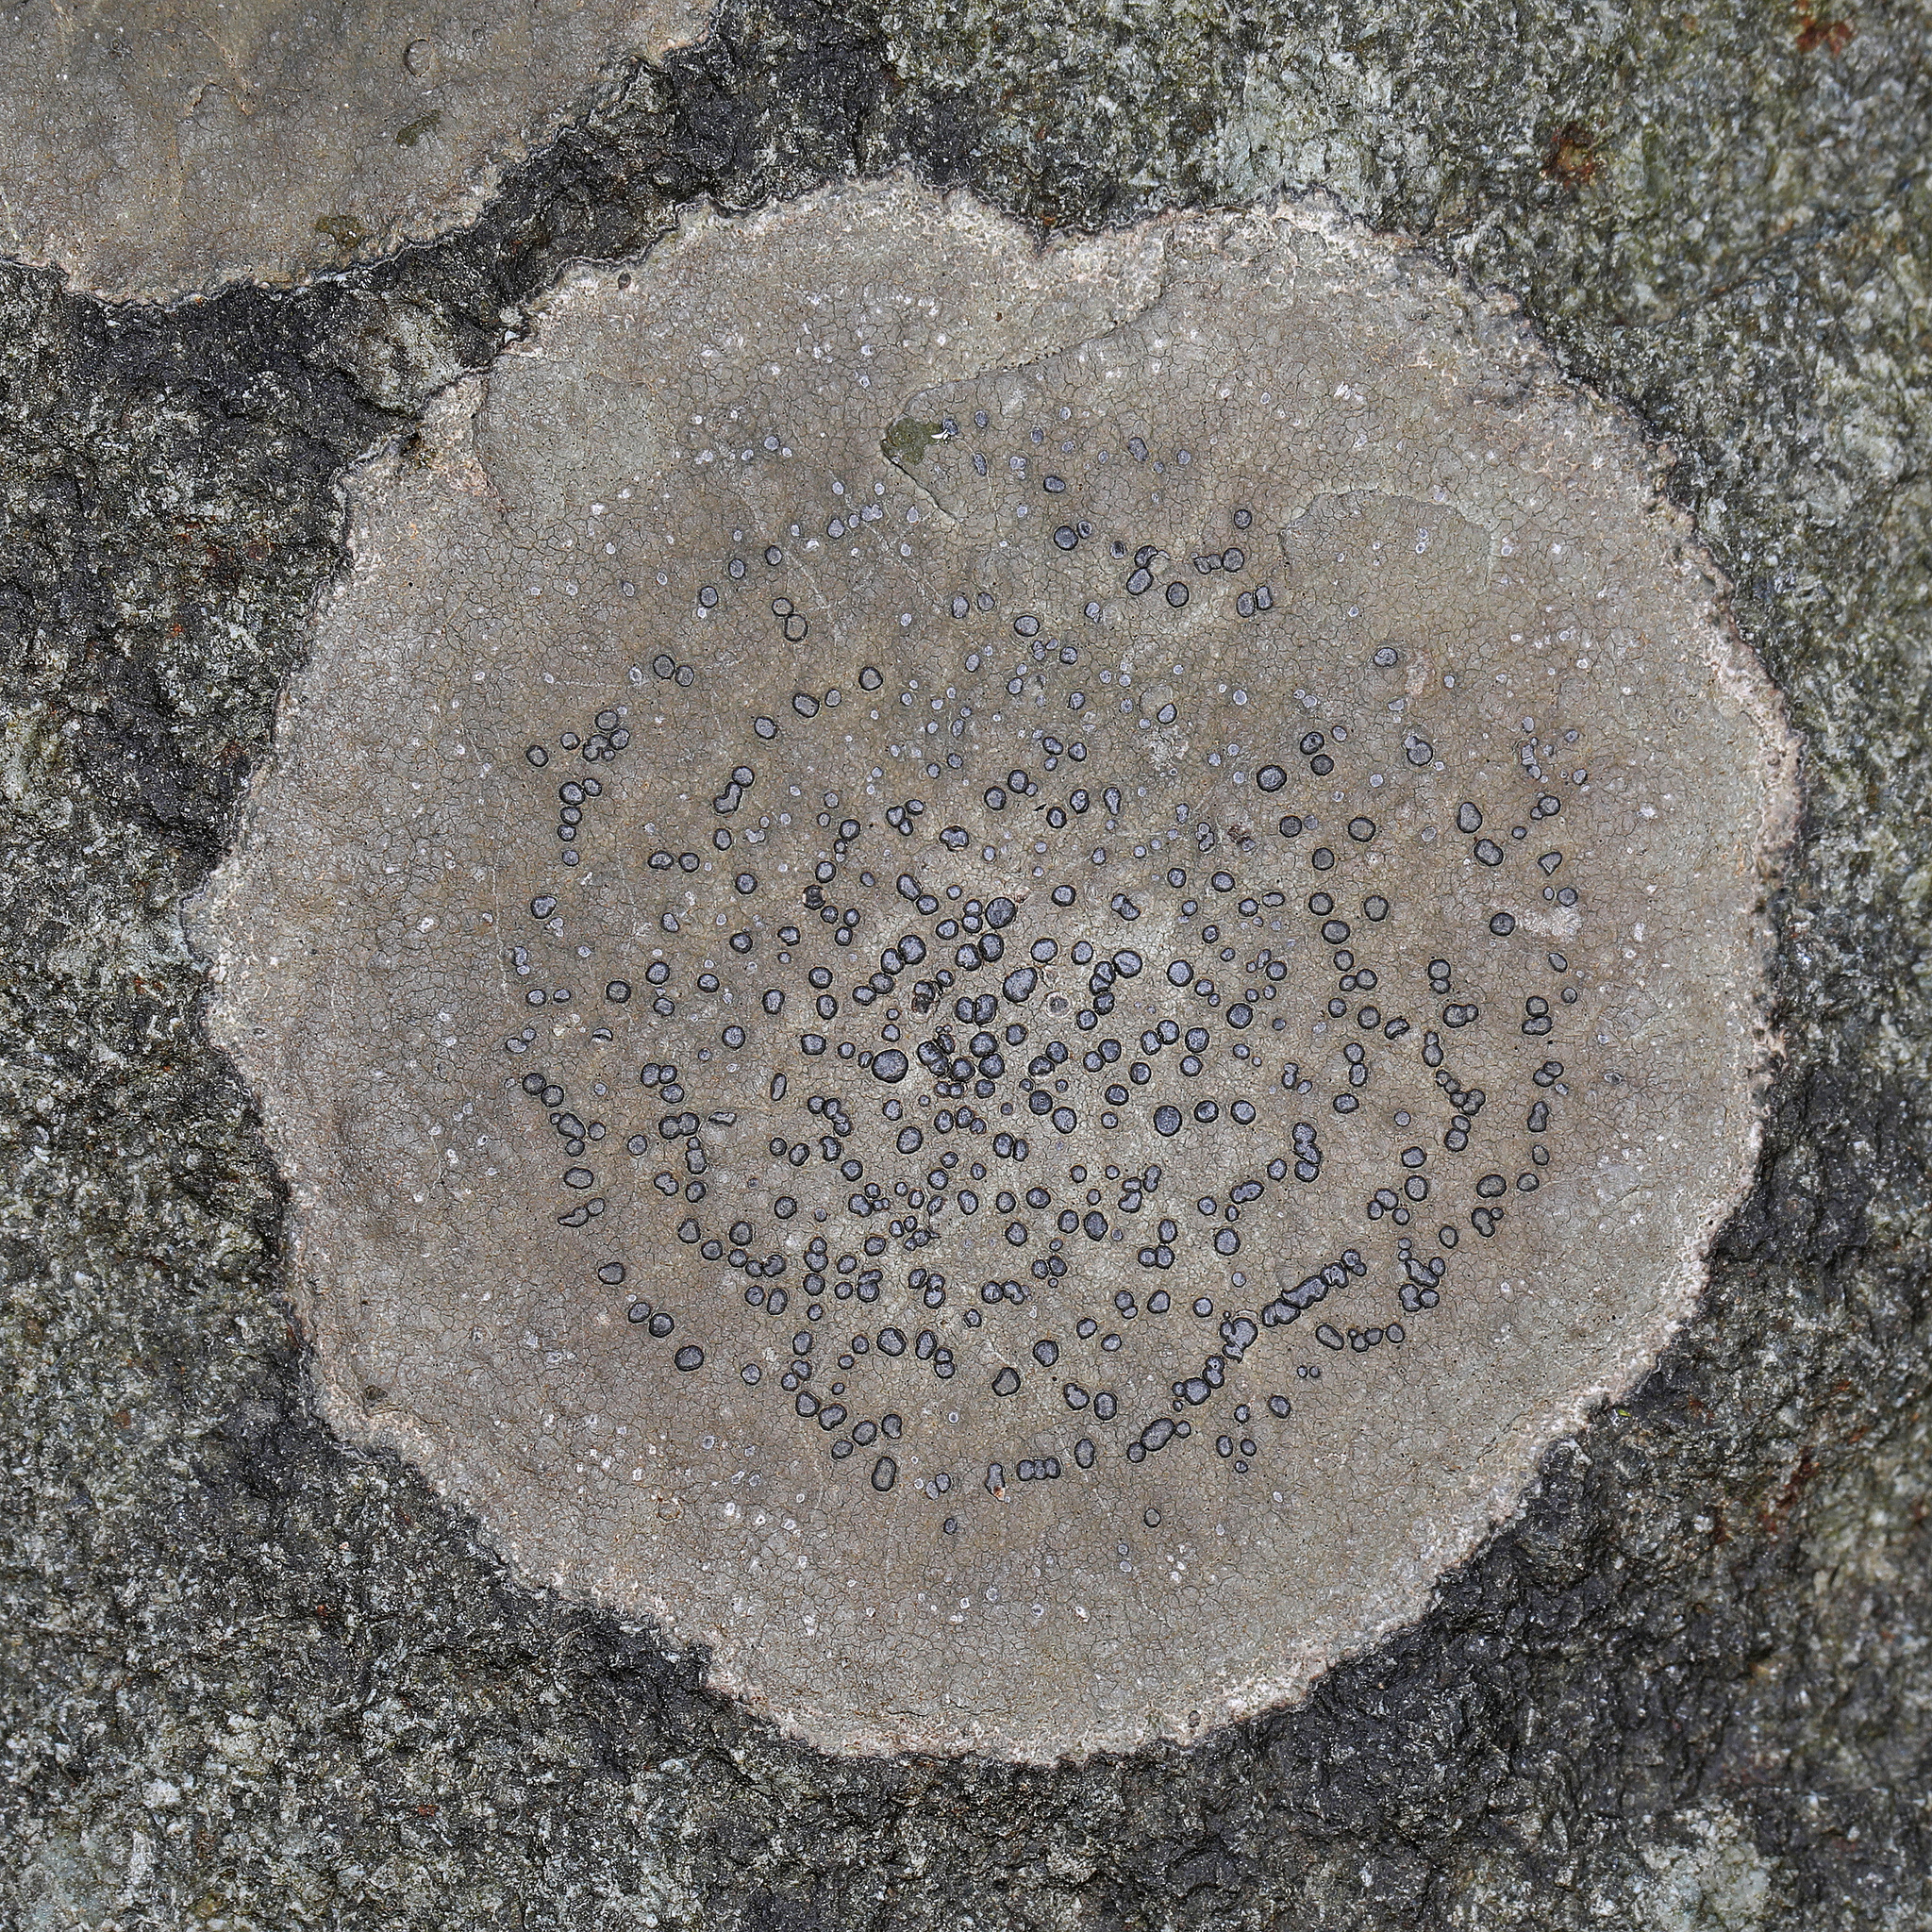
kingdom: Fungi
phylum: Ascomycota
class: Lecanoromycetes
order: Lecideales
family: Lecideaceae
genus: Porpidia
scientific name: Porpidia albocaerulescens
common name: Smokey-eyed boulder lichen
